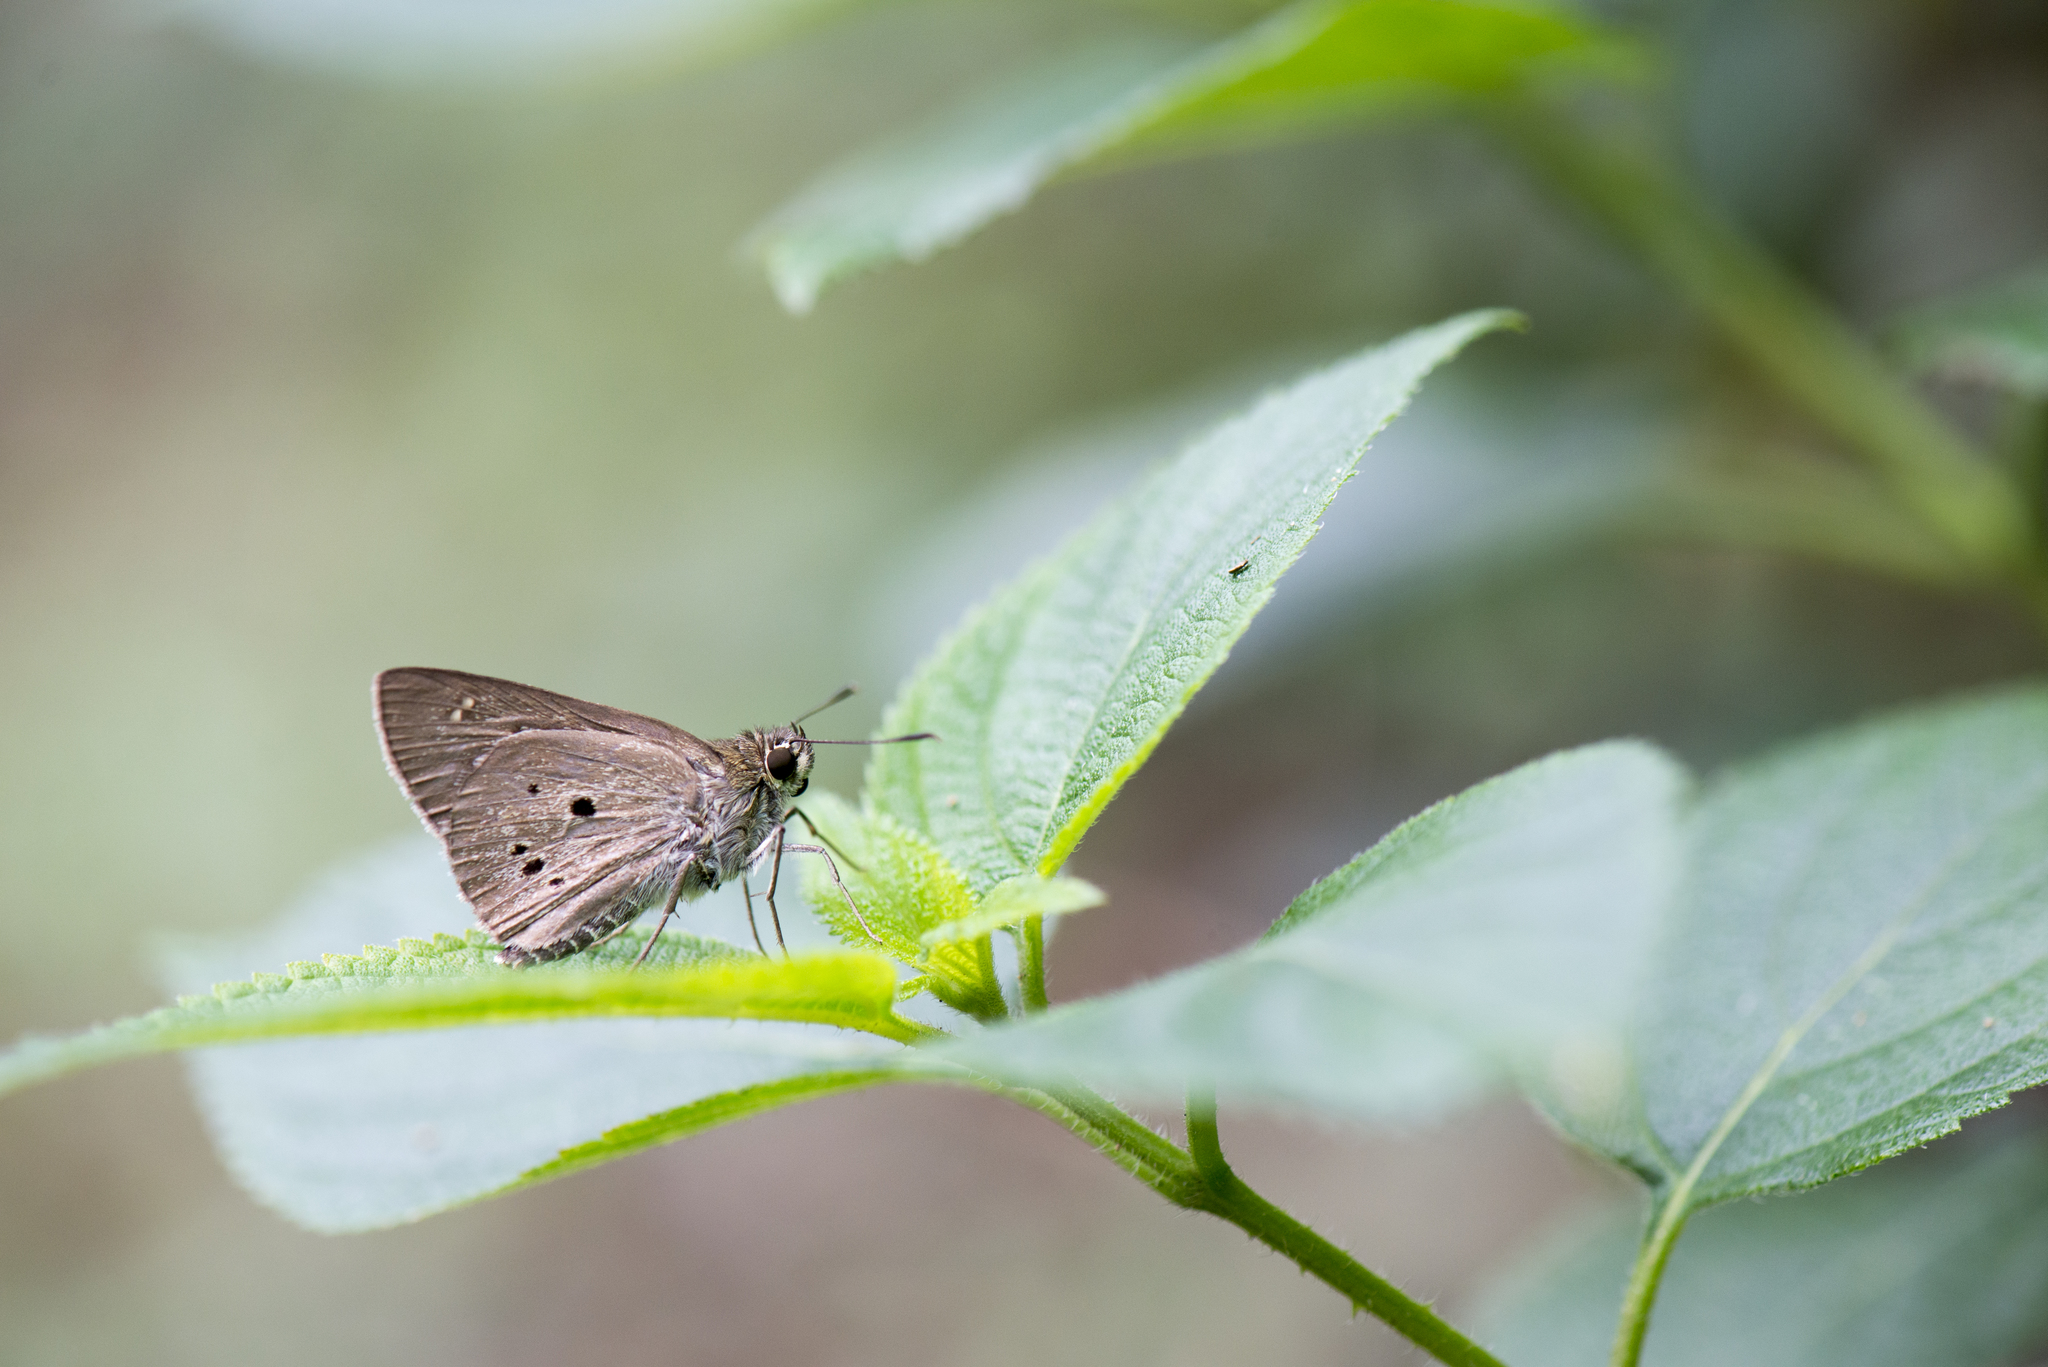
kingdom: Animalia
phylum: Arthropoda
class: Insecta
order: Lepidoptera
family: Hesperiidae
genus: Suastus
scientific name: Suastus gremius
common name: Indian palm bob
